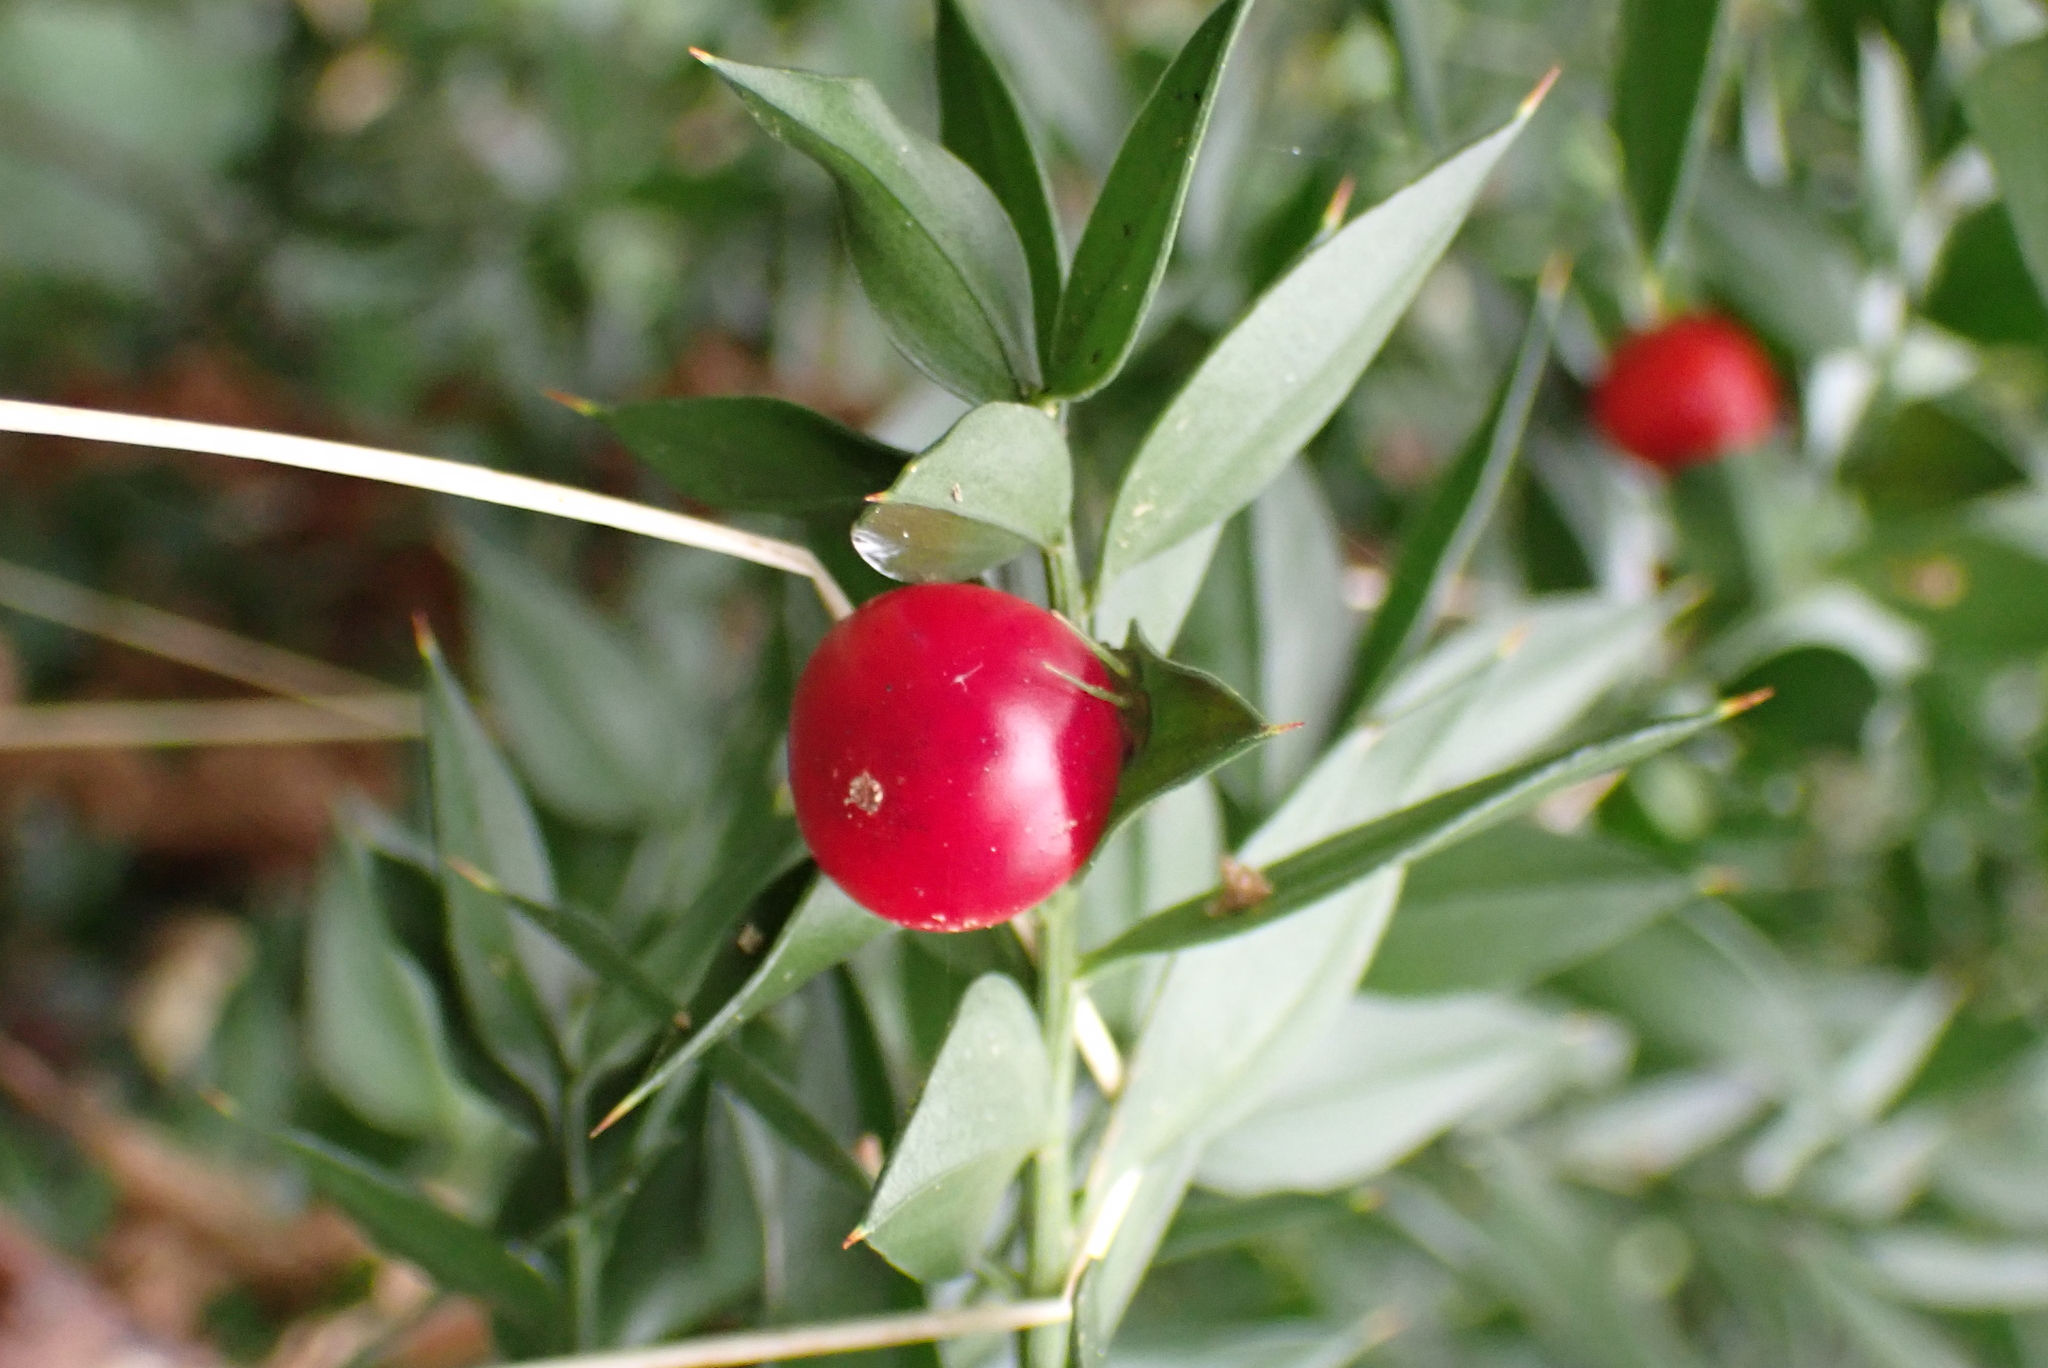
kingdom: Plantae
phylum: Tracheophyta
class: Liliopsida
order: Asparagales
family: Asparagaceae
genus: Ruscus
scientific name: Ruscus aculeatus
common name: Butcher's-broom
